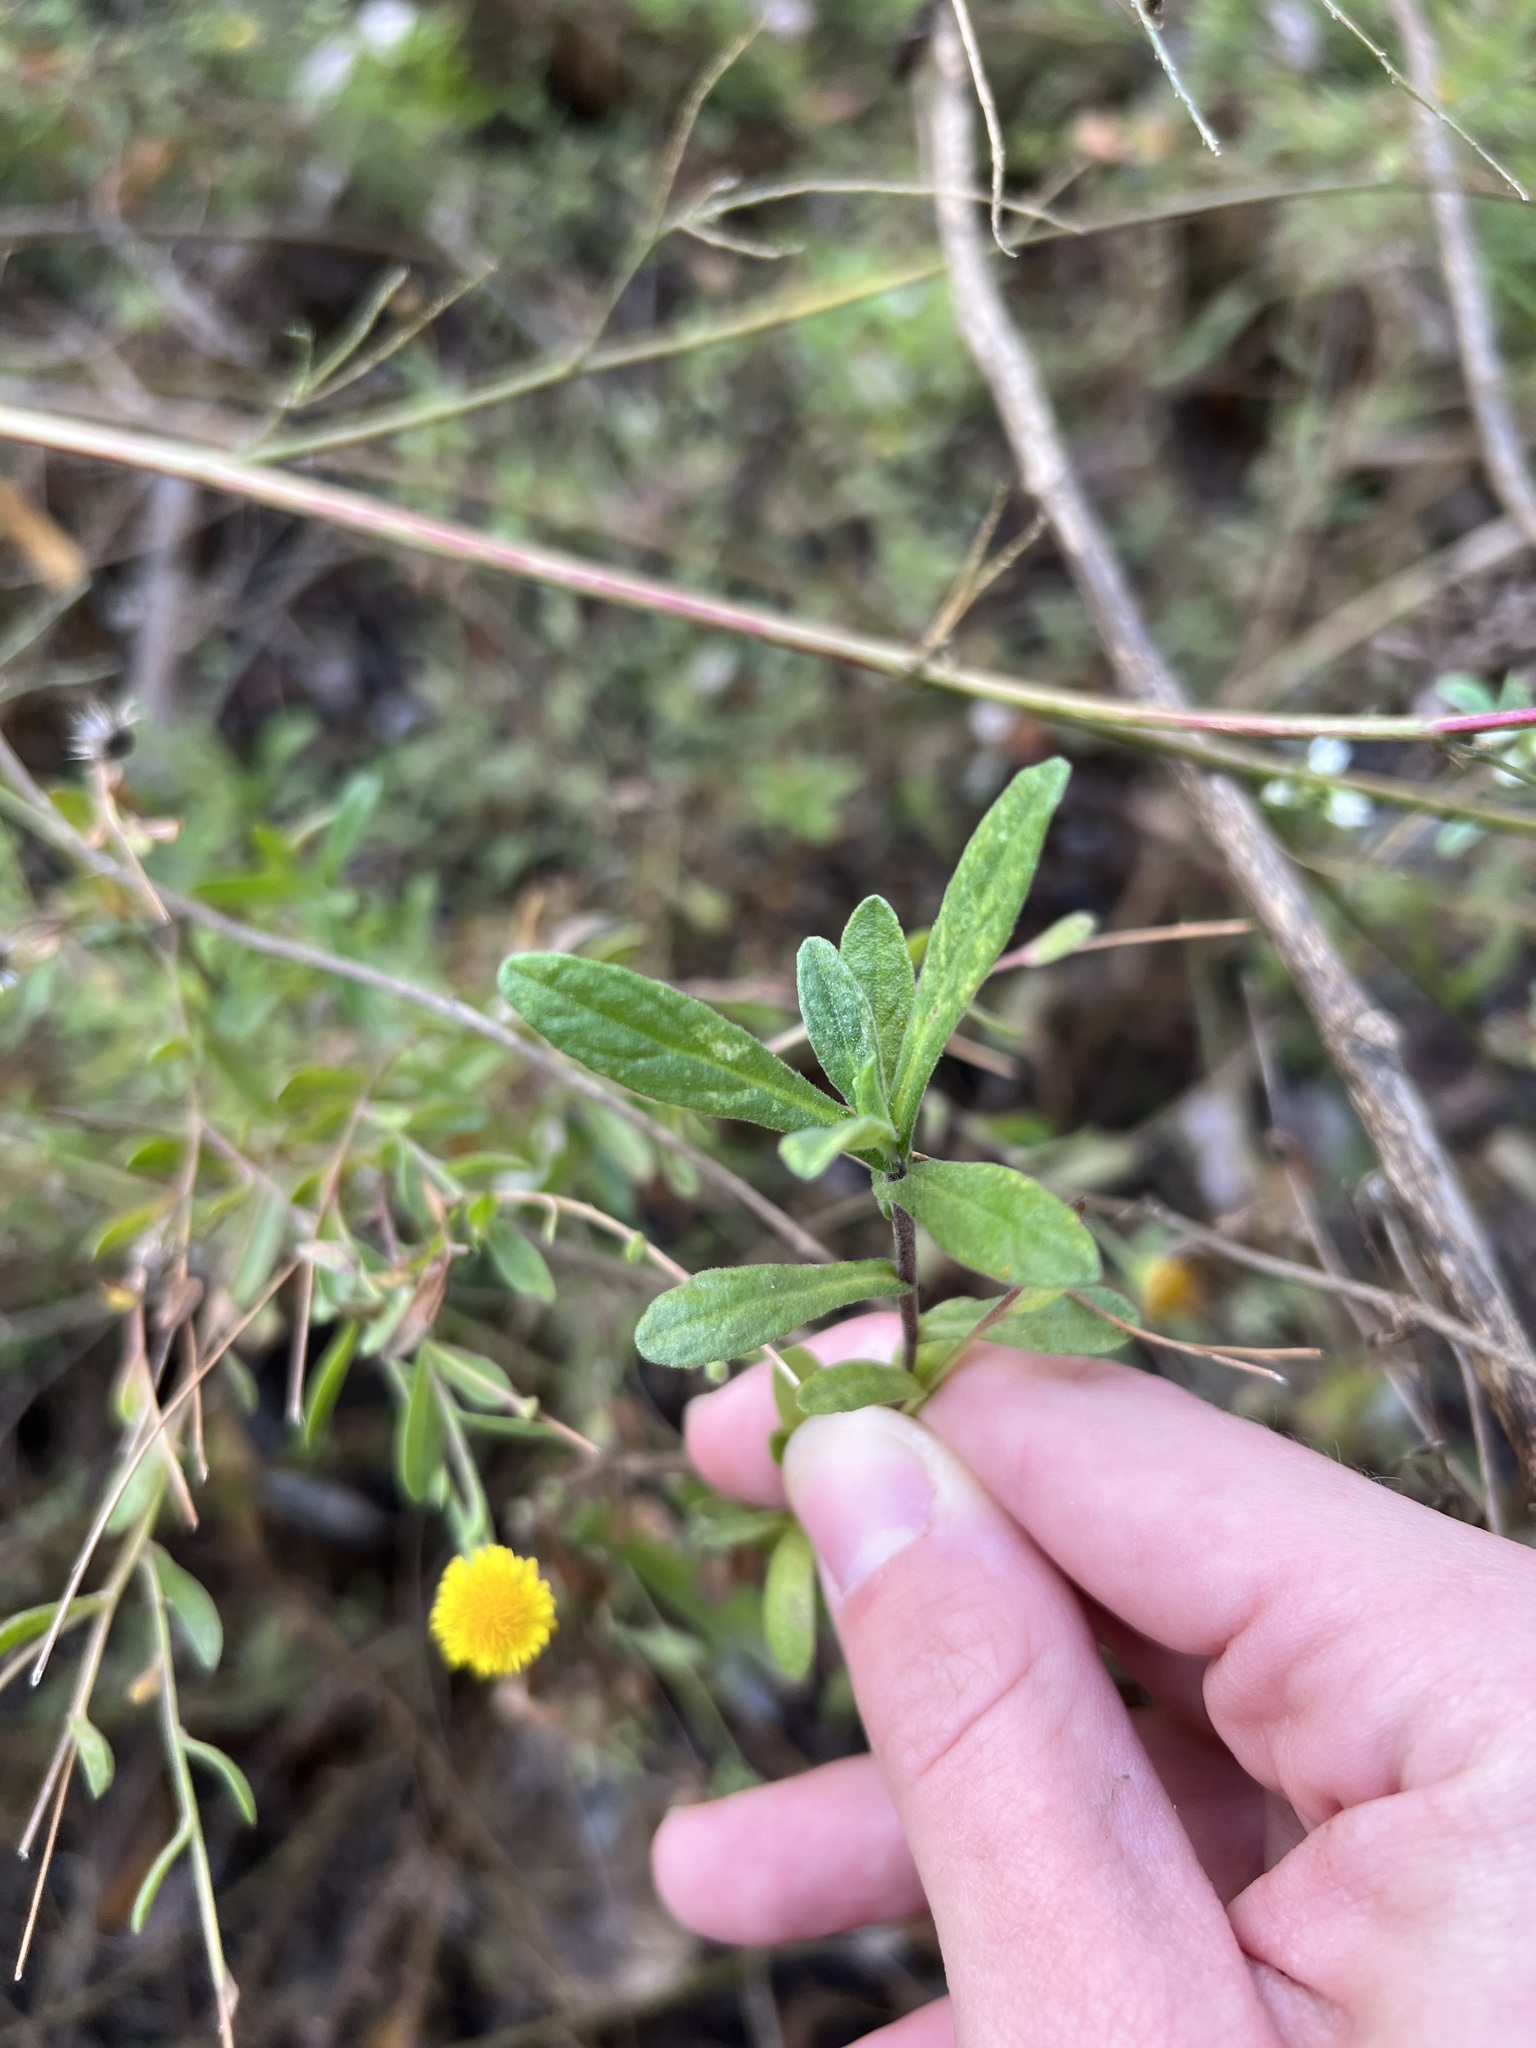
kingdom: Plantae
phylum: Tracheophyta
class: Magnoliopsida
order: Asterales
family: Asteraceae
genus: Pulicaria
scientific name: Pulicaria paludosa
